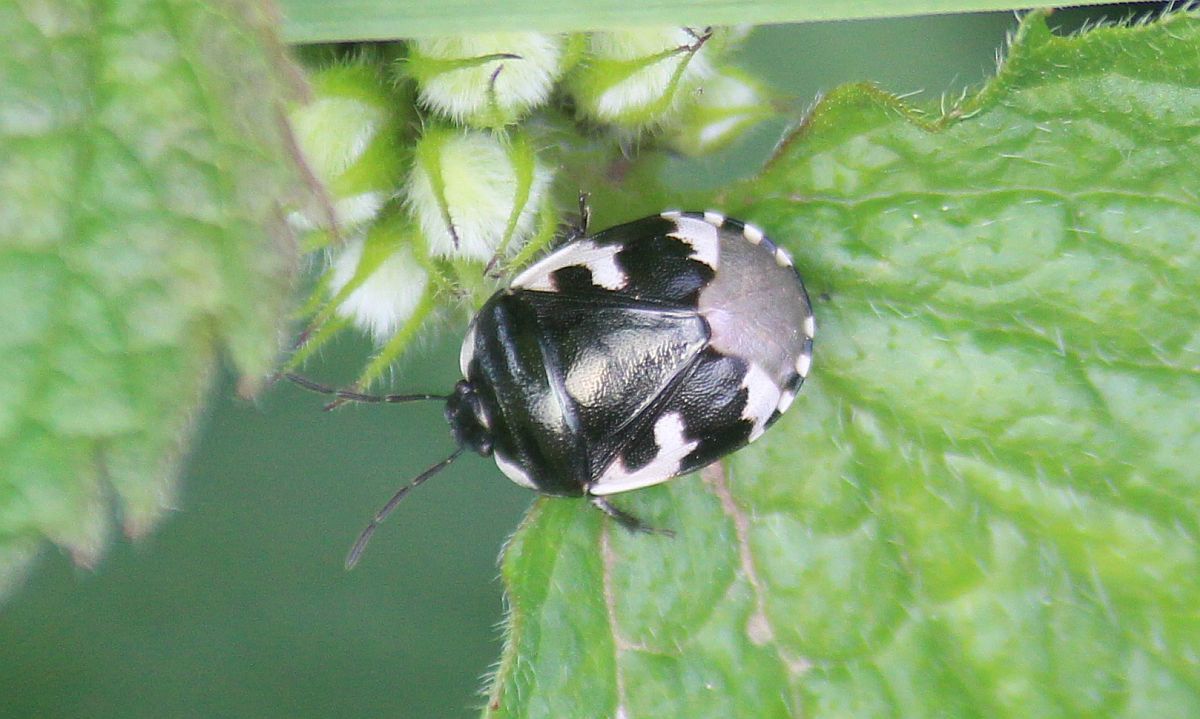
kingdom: Animalia
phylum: Arthropoda
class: Insecta
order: Hemiptera
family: Cydnidae
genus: Tritomegas
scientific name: Tritomegas bicolor
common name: Pied shieldbug
